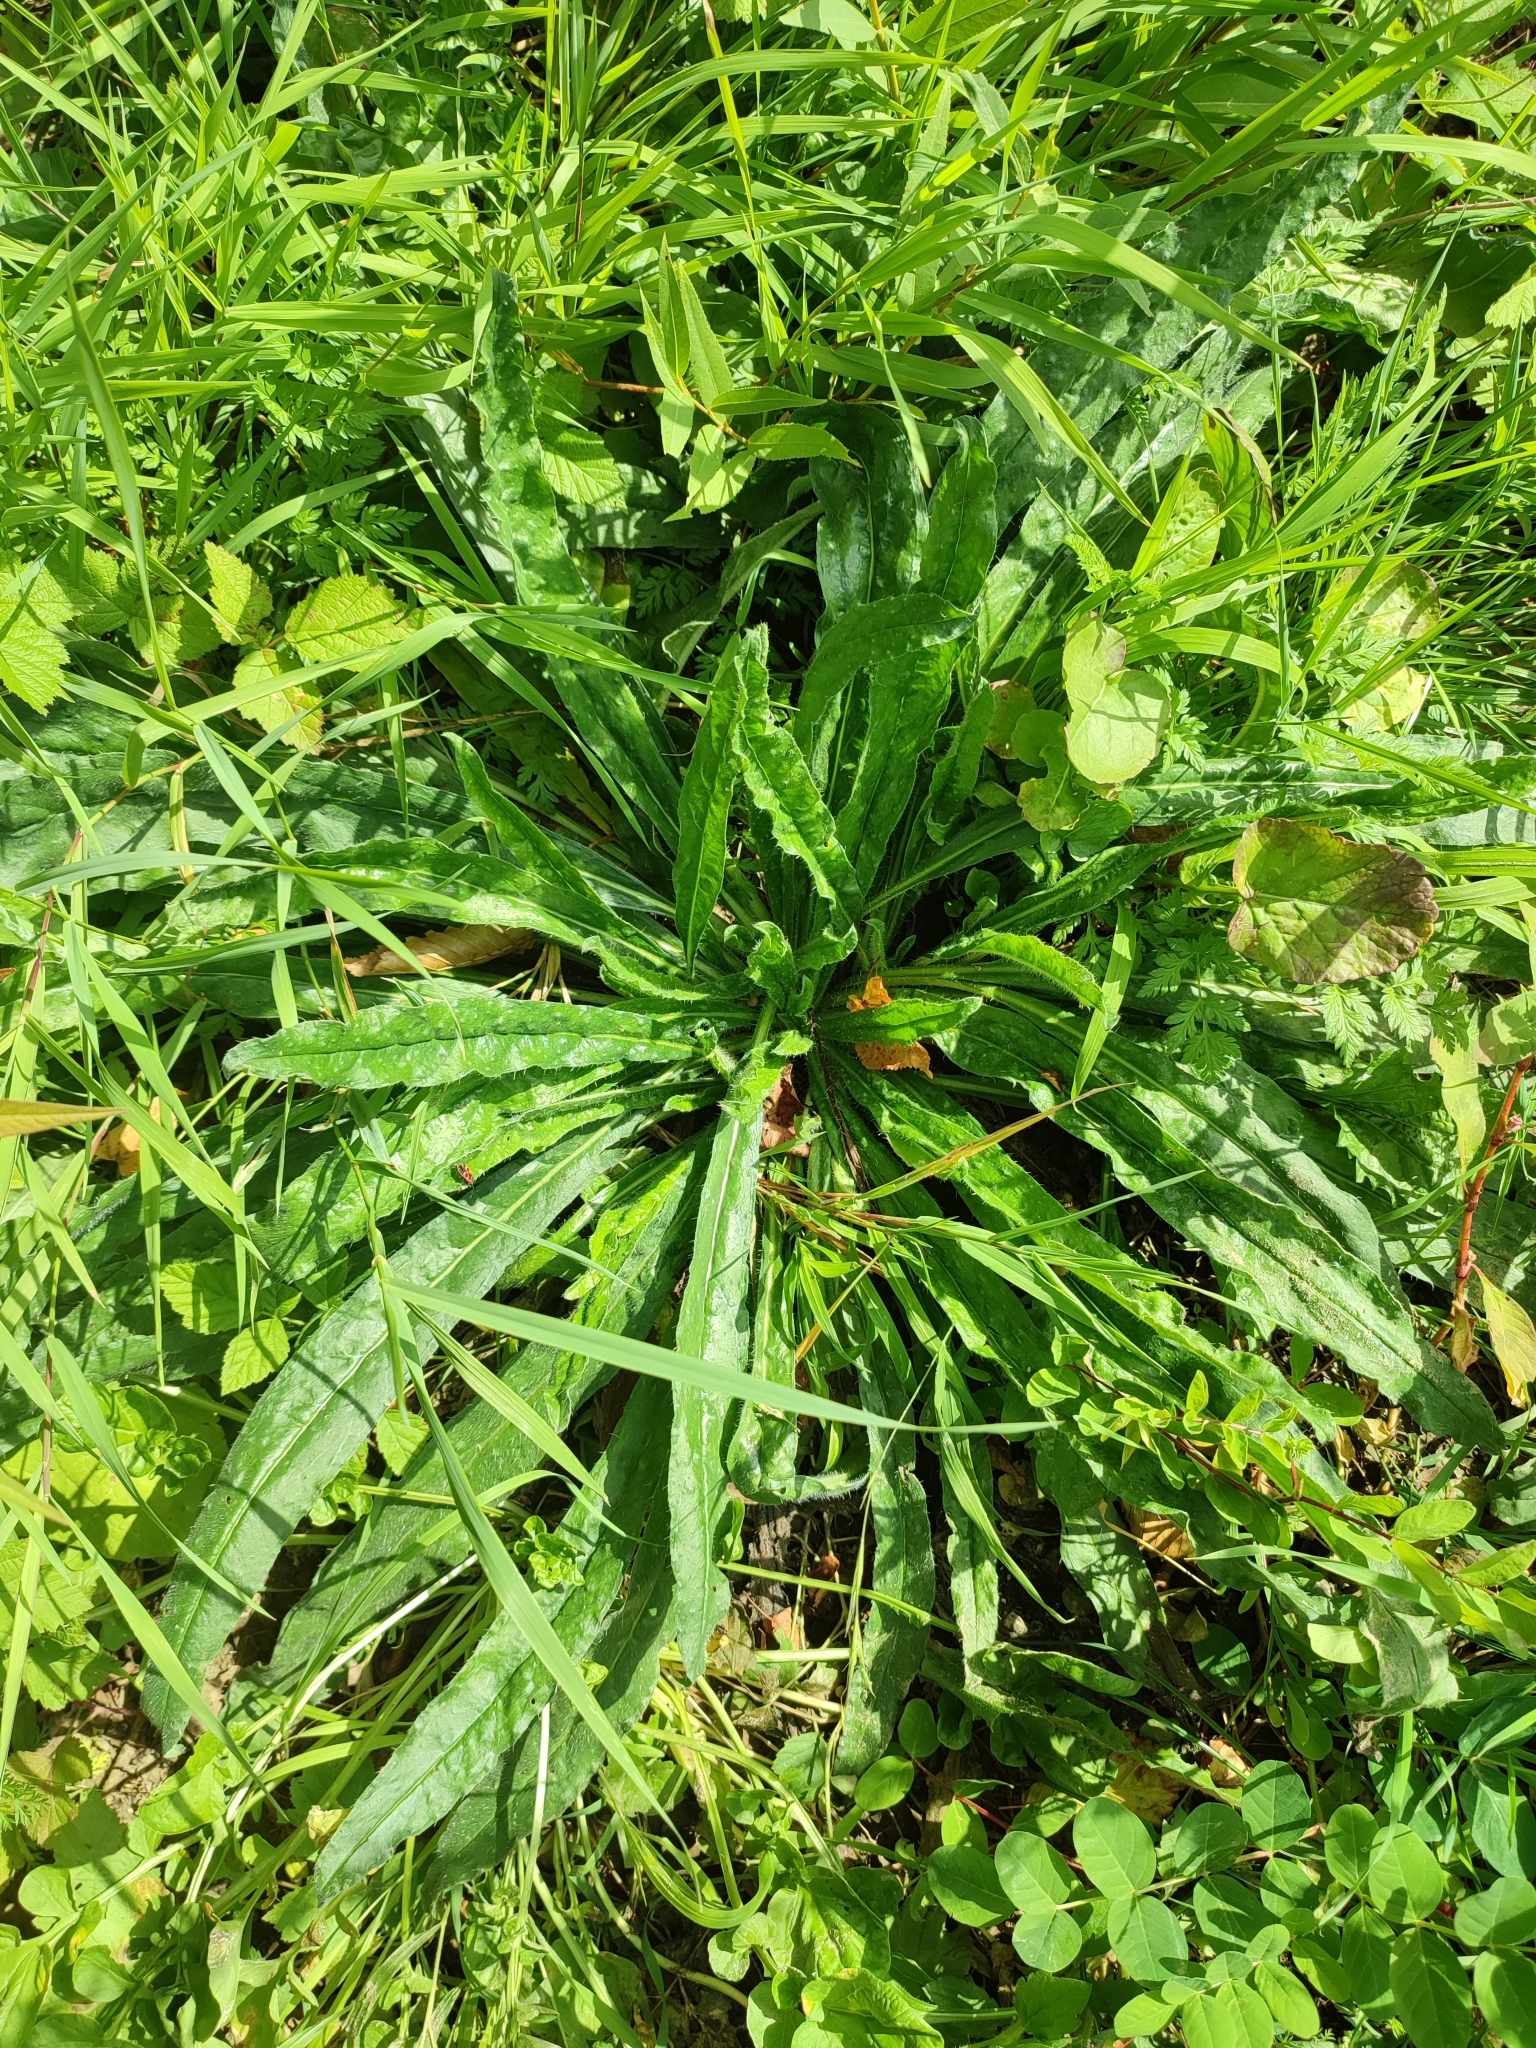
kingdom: Plantae
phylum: Tracheophyta
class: Magnoliopsida
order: Boraginales
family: Boraginaceae
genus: Echium
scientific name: Echium vulgare
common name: Common viper's bugloss
